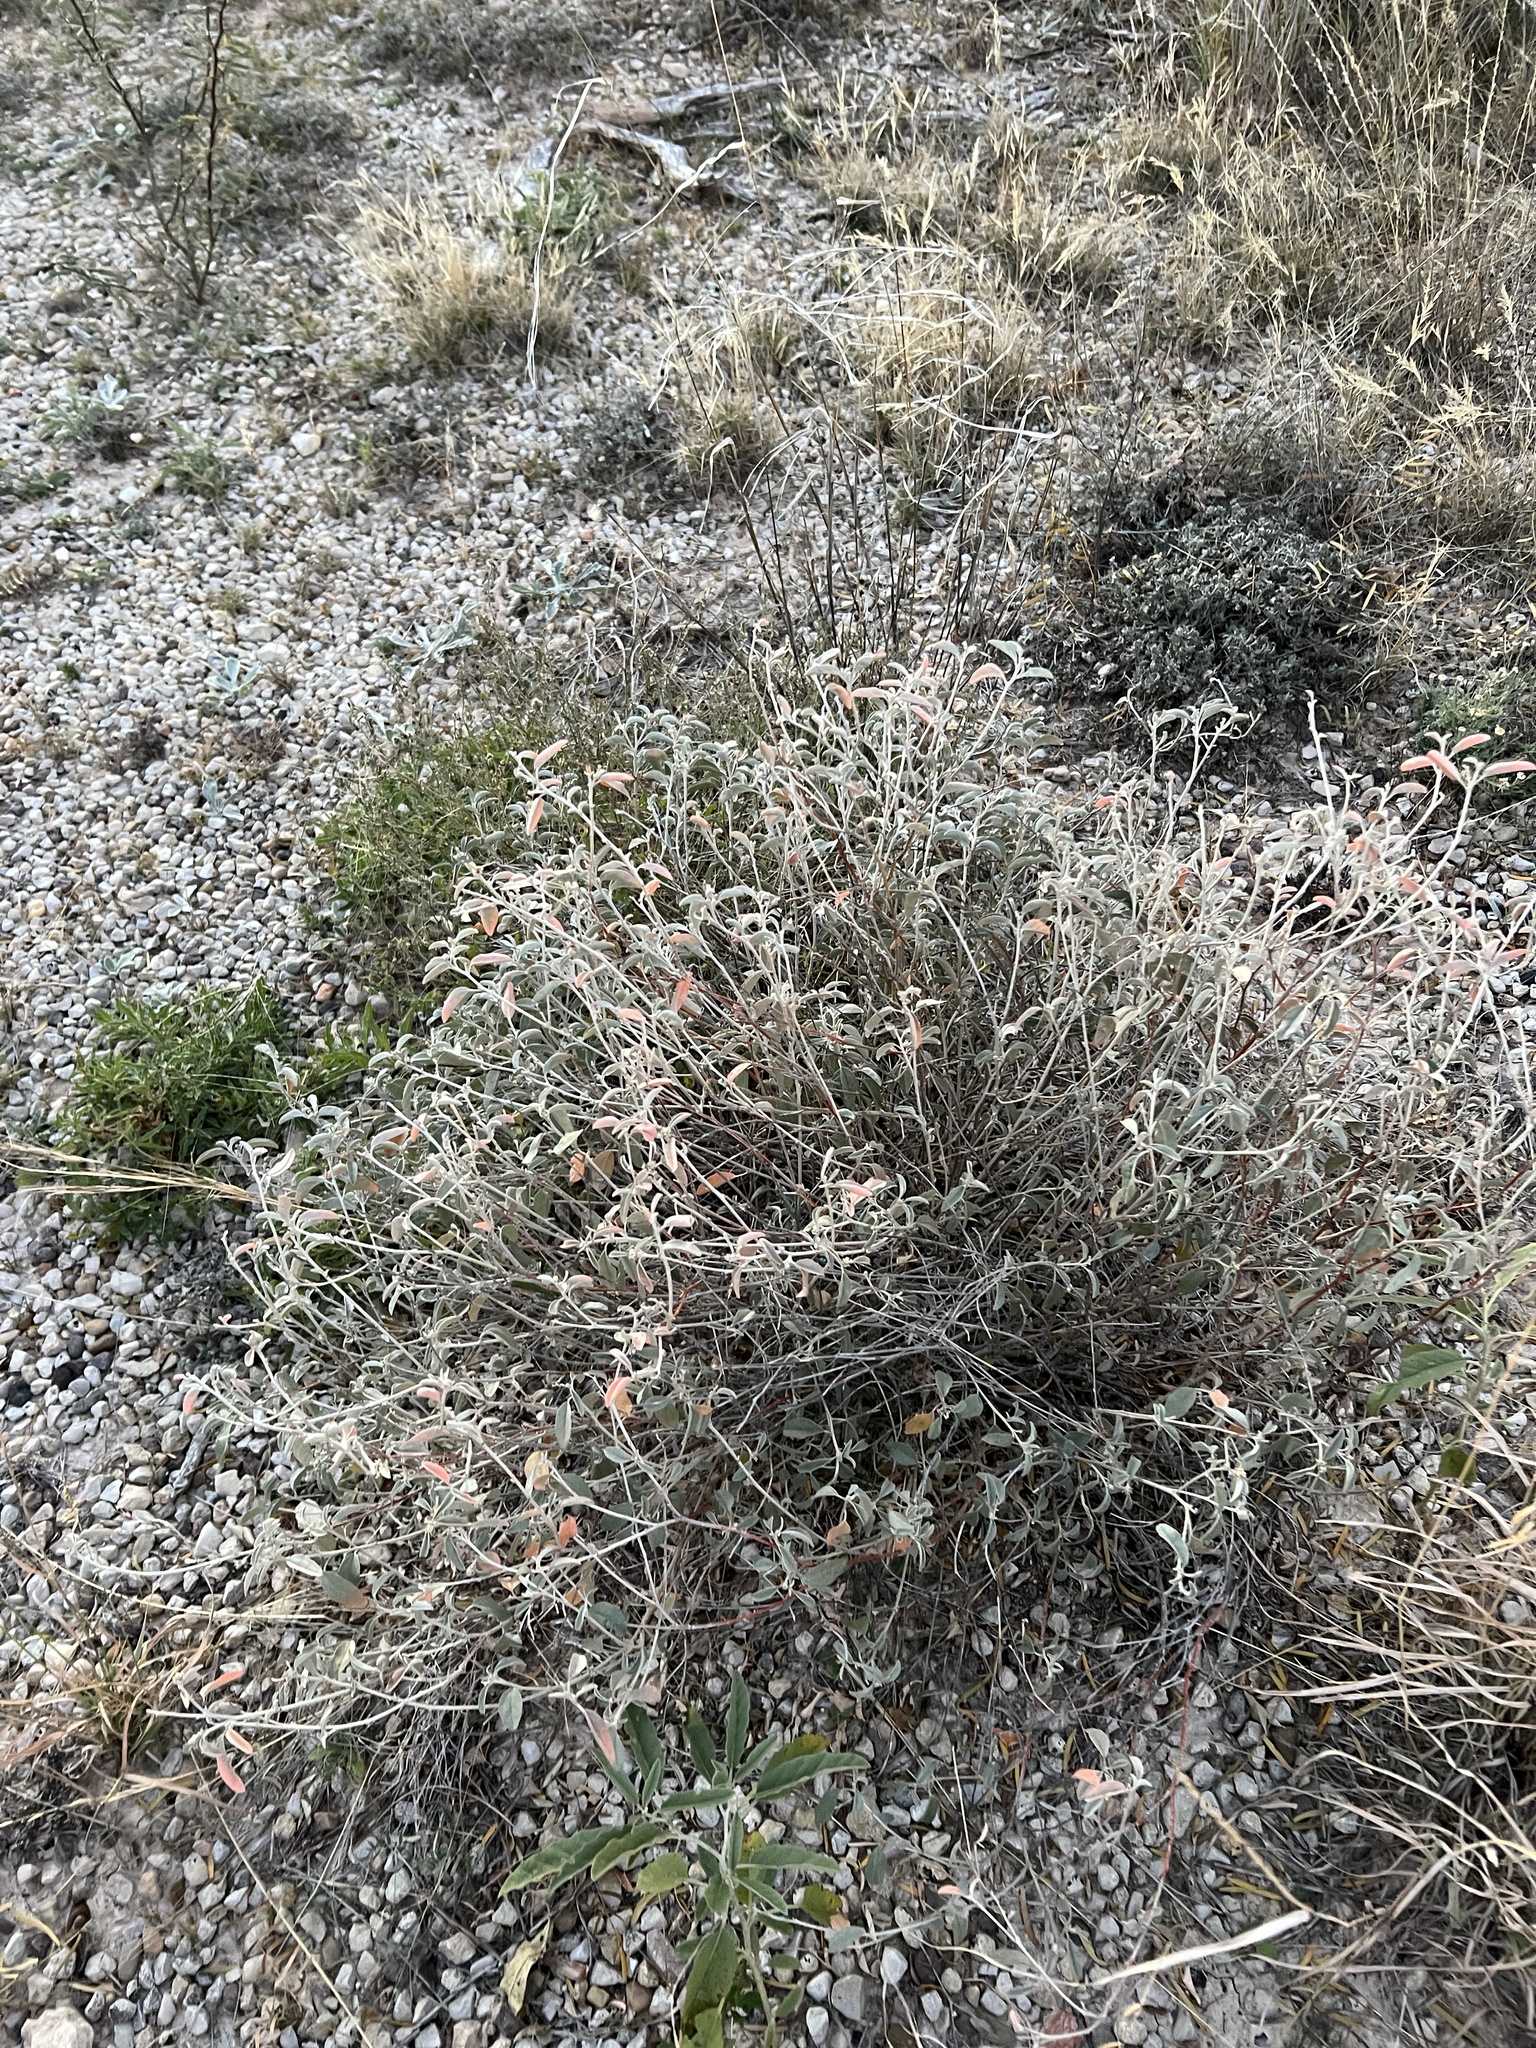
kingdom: Plantae
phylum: Tracheophyta
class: Magnoliopsida
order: Malpighiales
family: Euphorbiaceae
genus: Croton
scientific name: Croton dioicus
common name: Grassland croton
